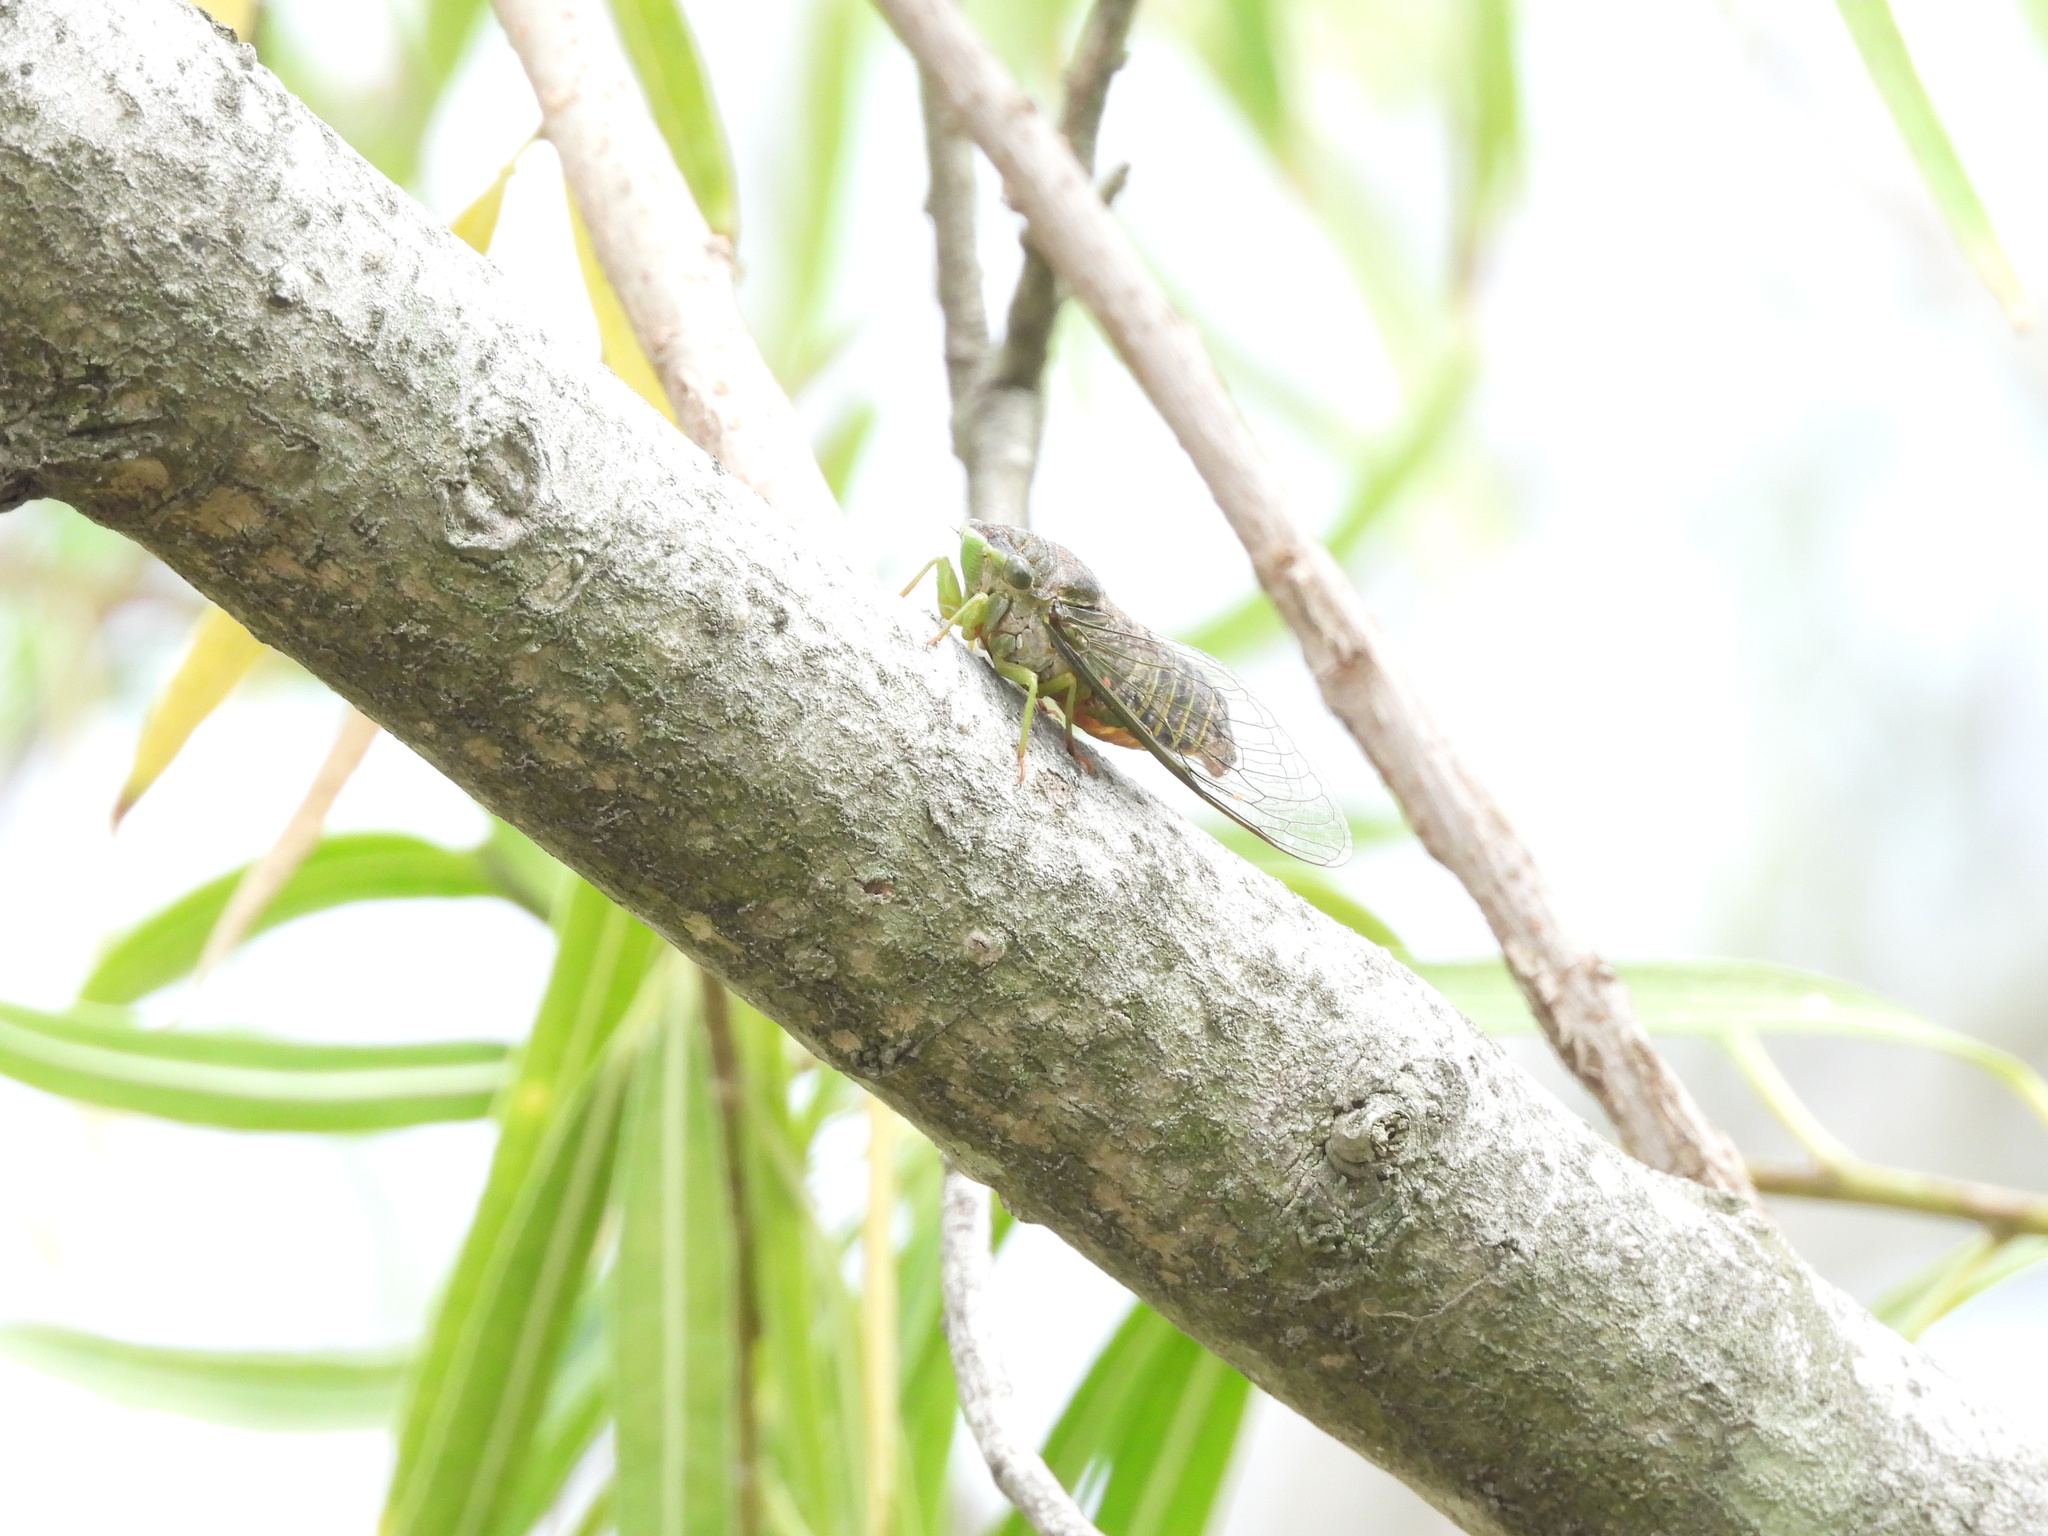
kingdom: Animalia
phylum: Arthropoda
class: Insecta
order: Hemiptera
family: Cicadidae
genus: Acanthoventris
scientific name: Acanthoventris drewseni
